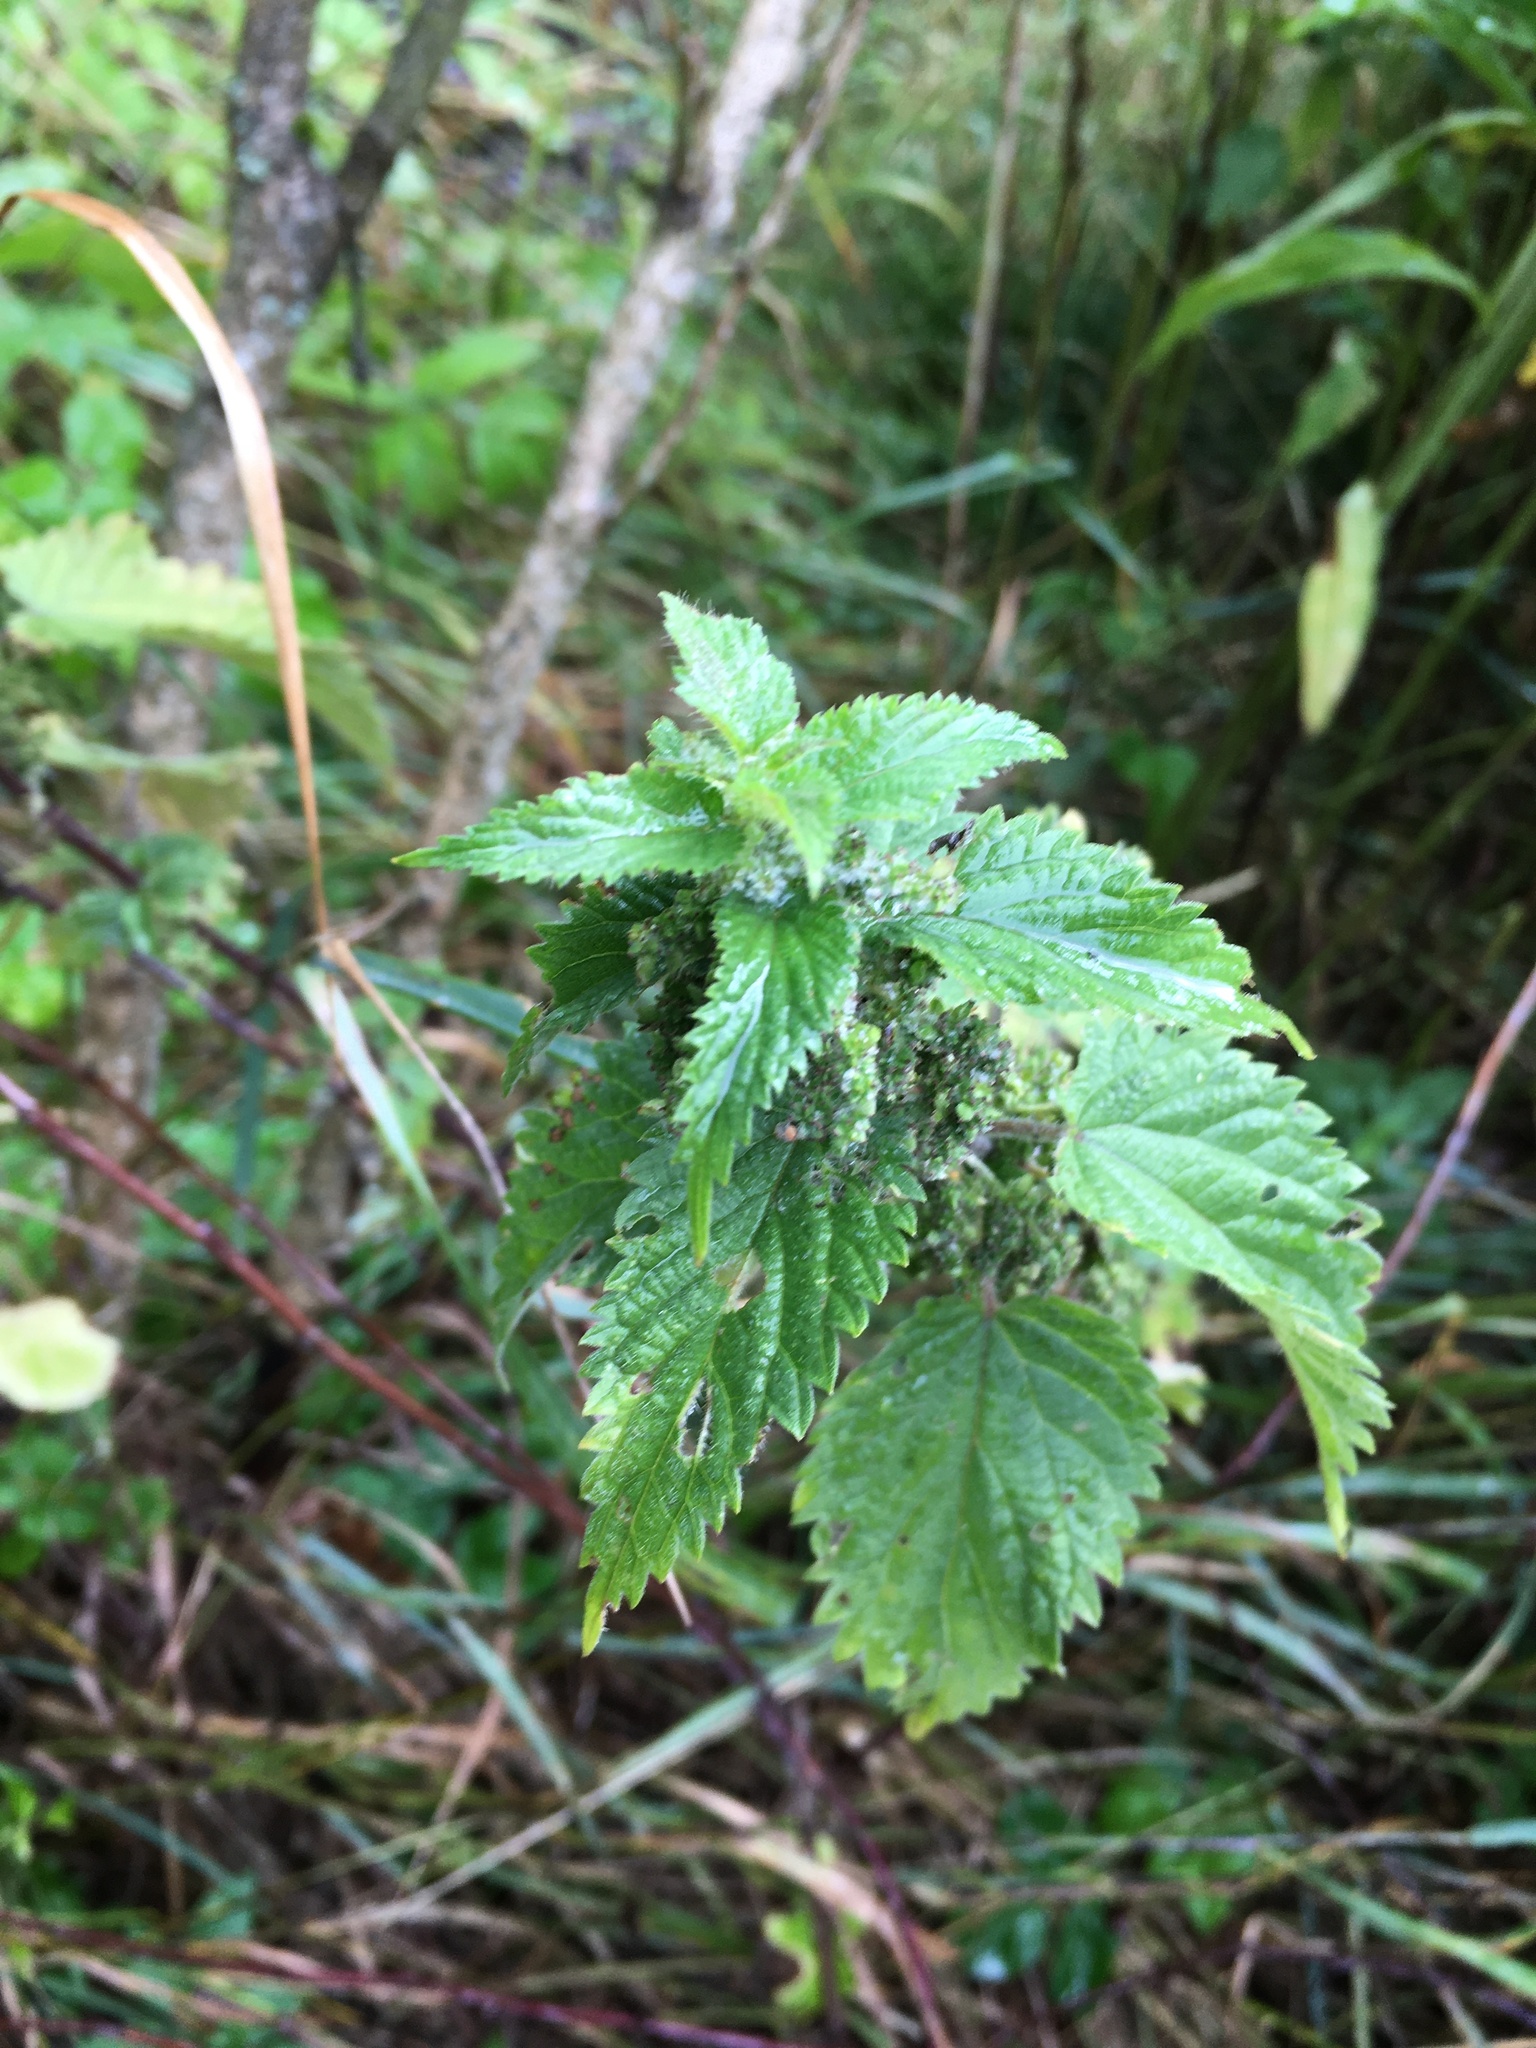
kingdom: Plantae
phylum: Tracheophyta
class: Magnoliopsida
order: Rosales
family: Urticaceae
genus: Urtica
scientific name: Urtica dioica
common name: Common nettle
